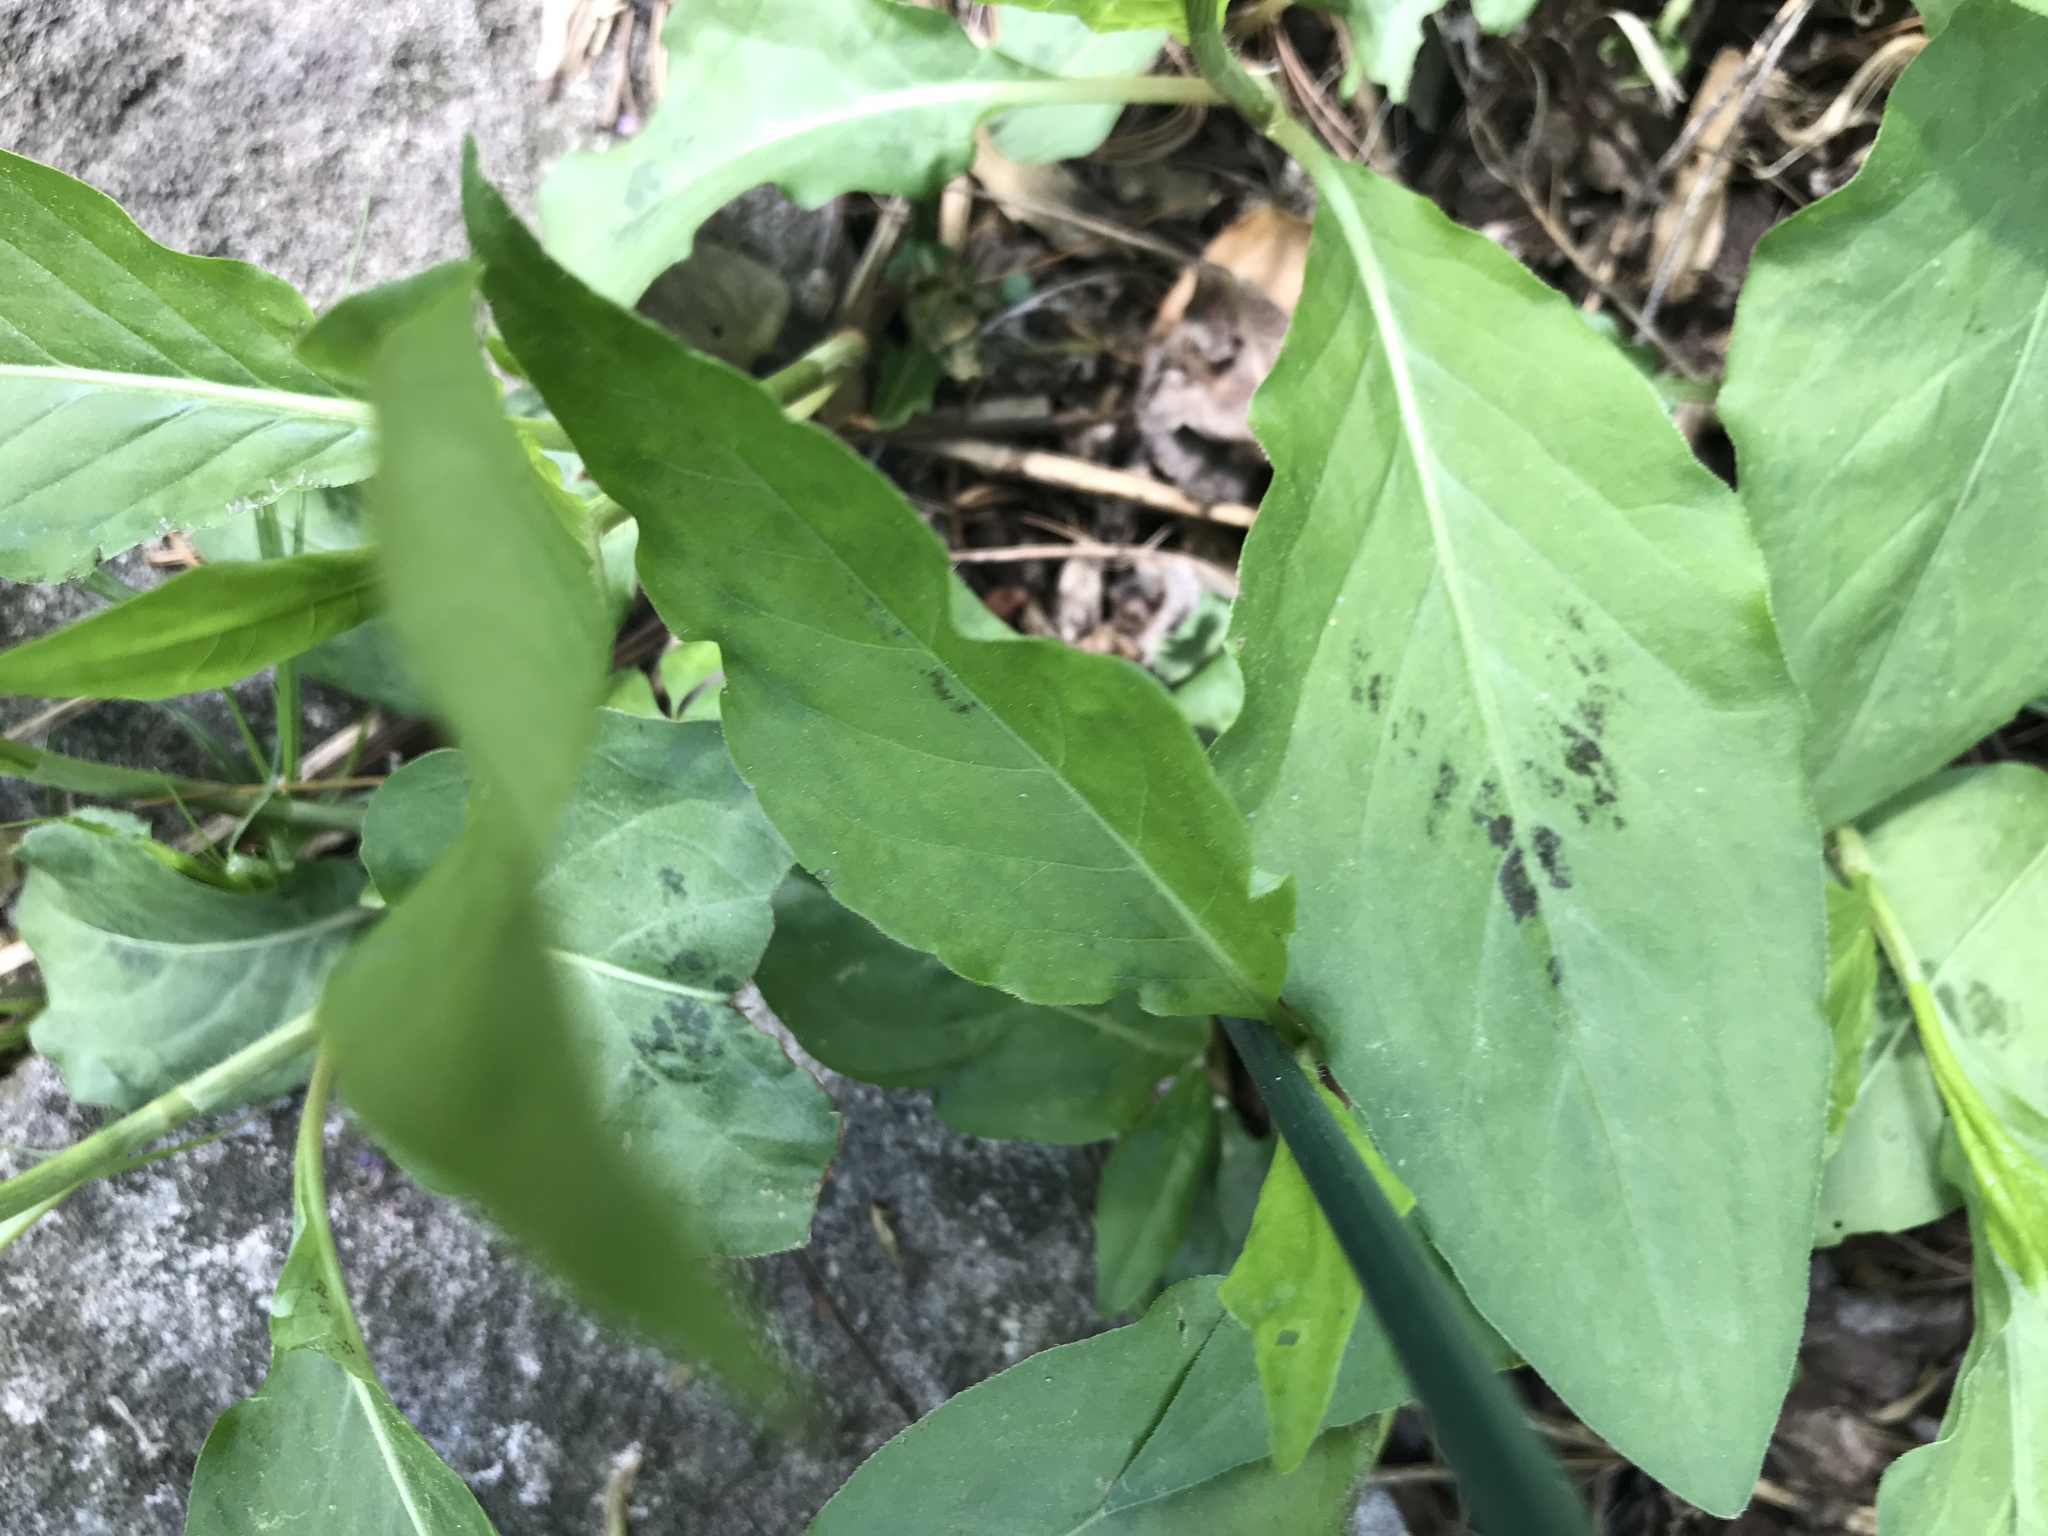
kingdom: Plantae
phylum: Tracheophyta
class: Magnoliopsida
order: Caryophyllales
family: Polygonaceae
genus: Persicaria
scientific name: Persicaria virginiana
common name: Jumpseed
